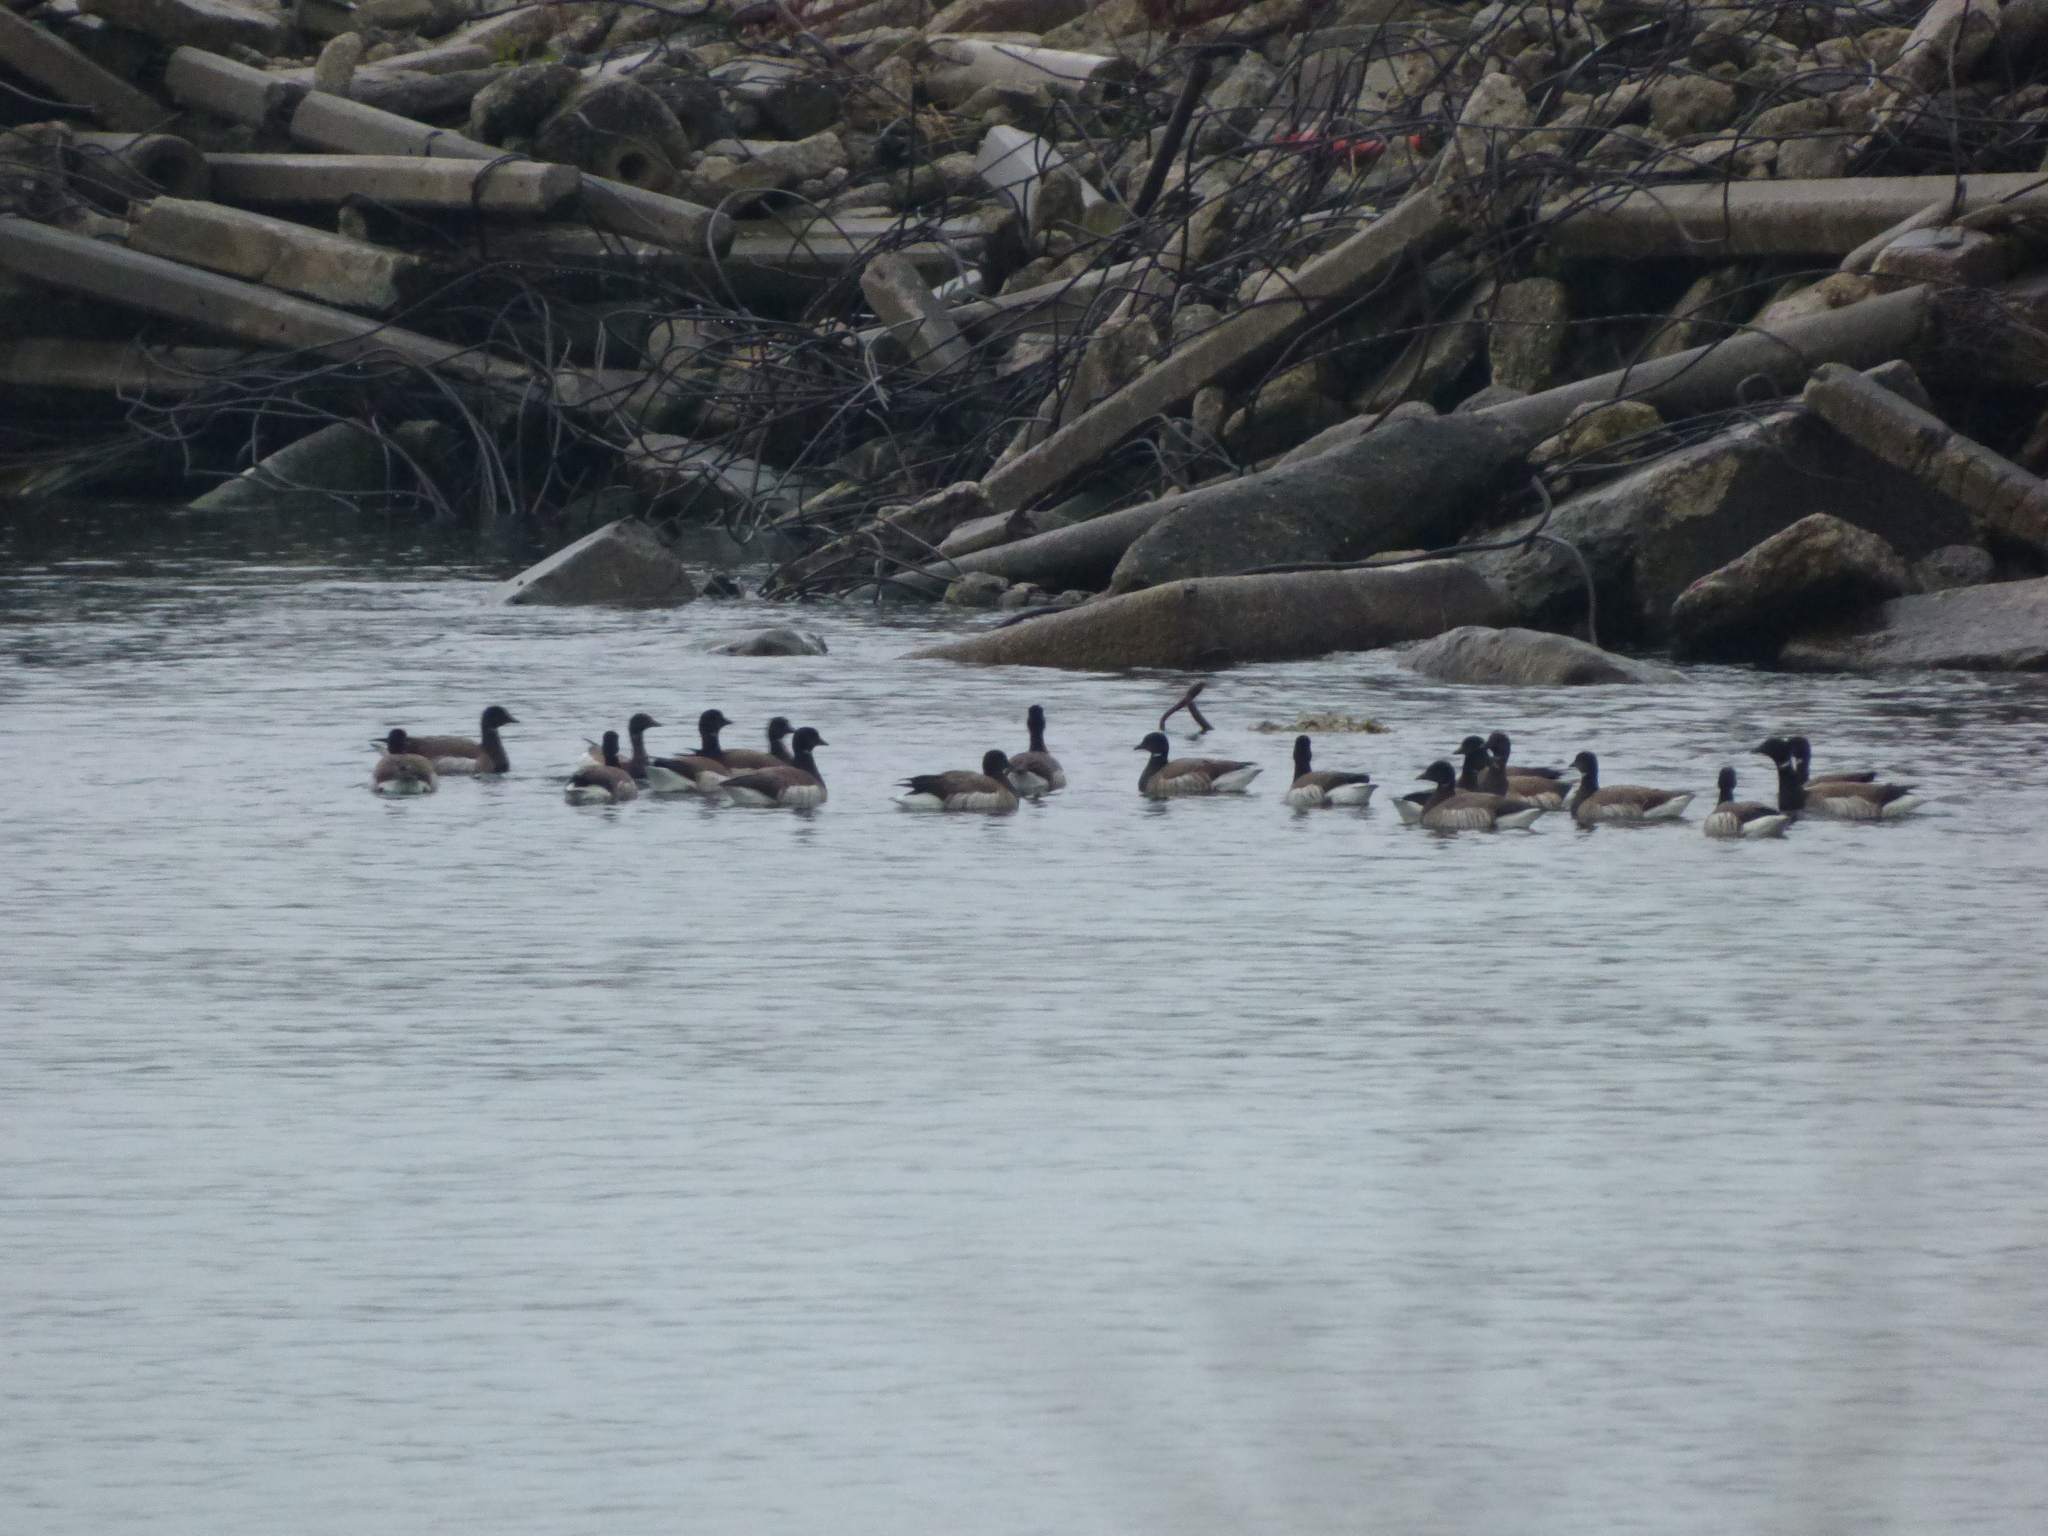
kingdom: Animalia
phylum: Chordata
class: Aves
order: Anseriformes
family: Anatidae
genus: Branta
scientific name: Branta bernicla
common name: Brant goose
